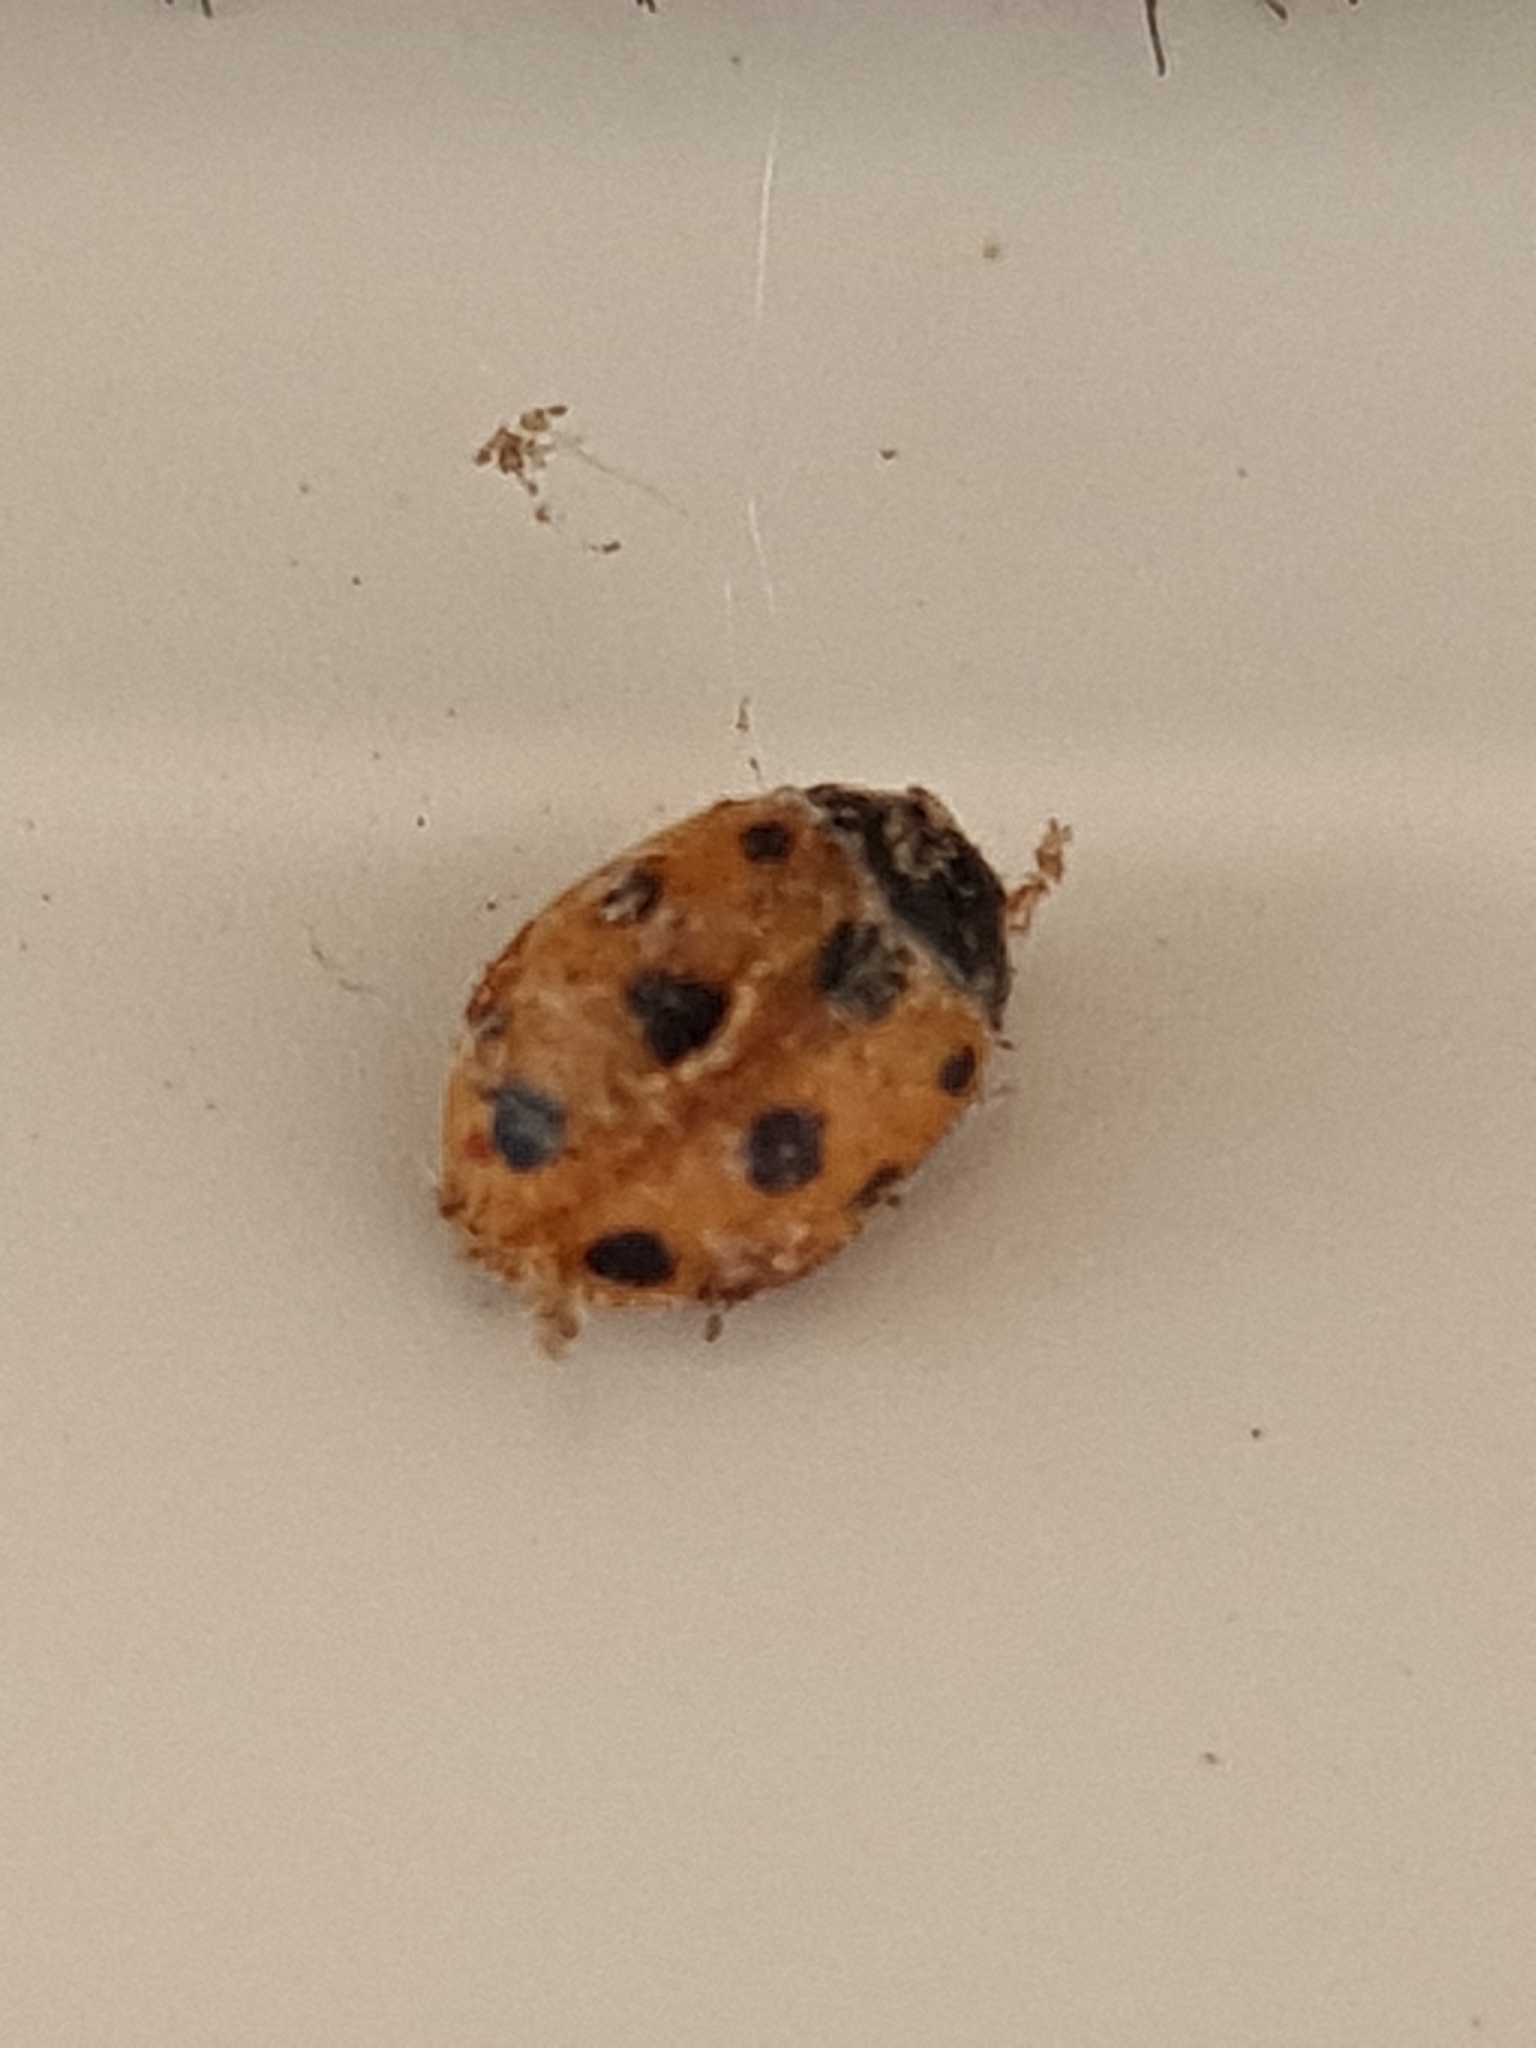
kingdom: Animalia
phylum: Arthropoda
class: Insecta
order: Coleoptera
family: Coccinellidae
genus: Coccinella
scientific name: Coccinella undecimpunctata
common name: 11-spot ladybird
